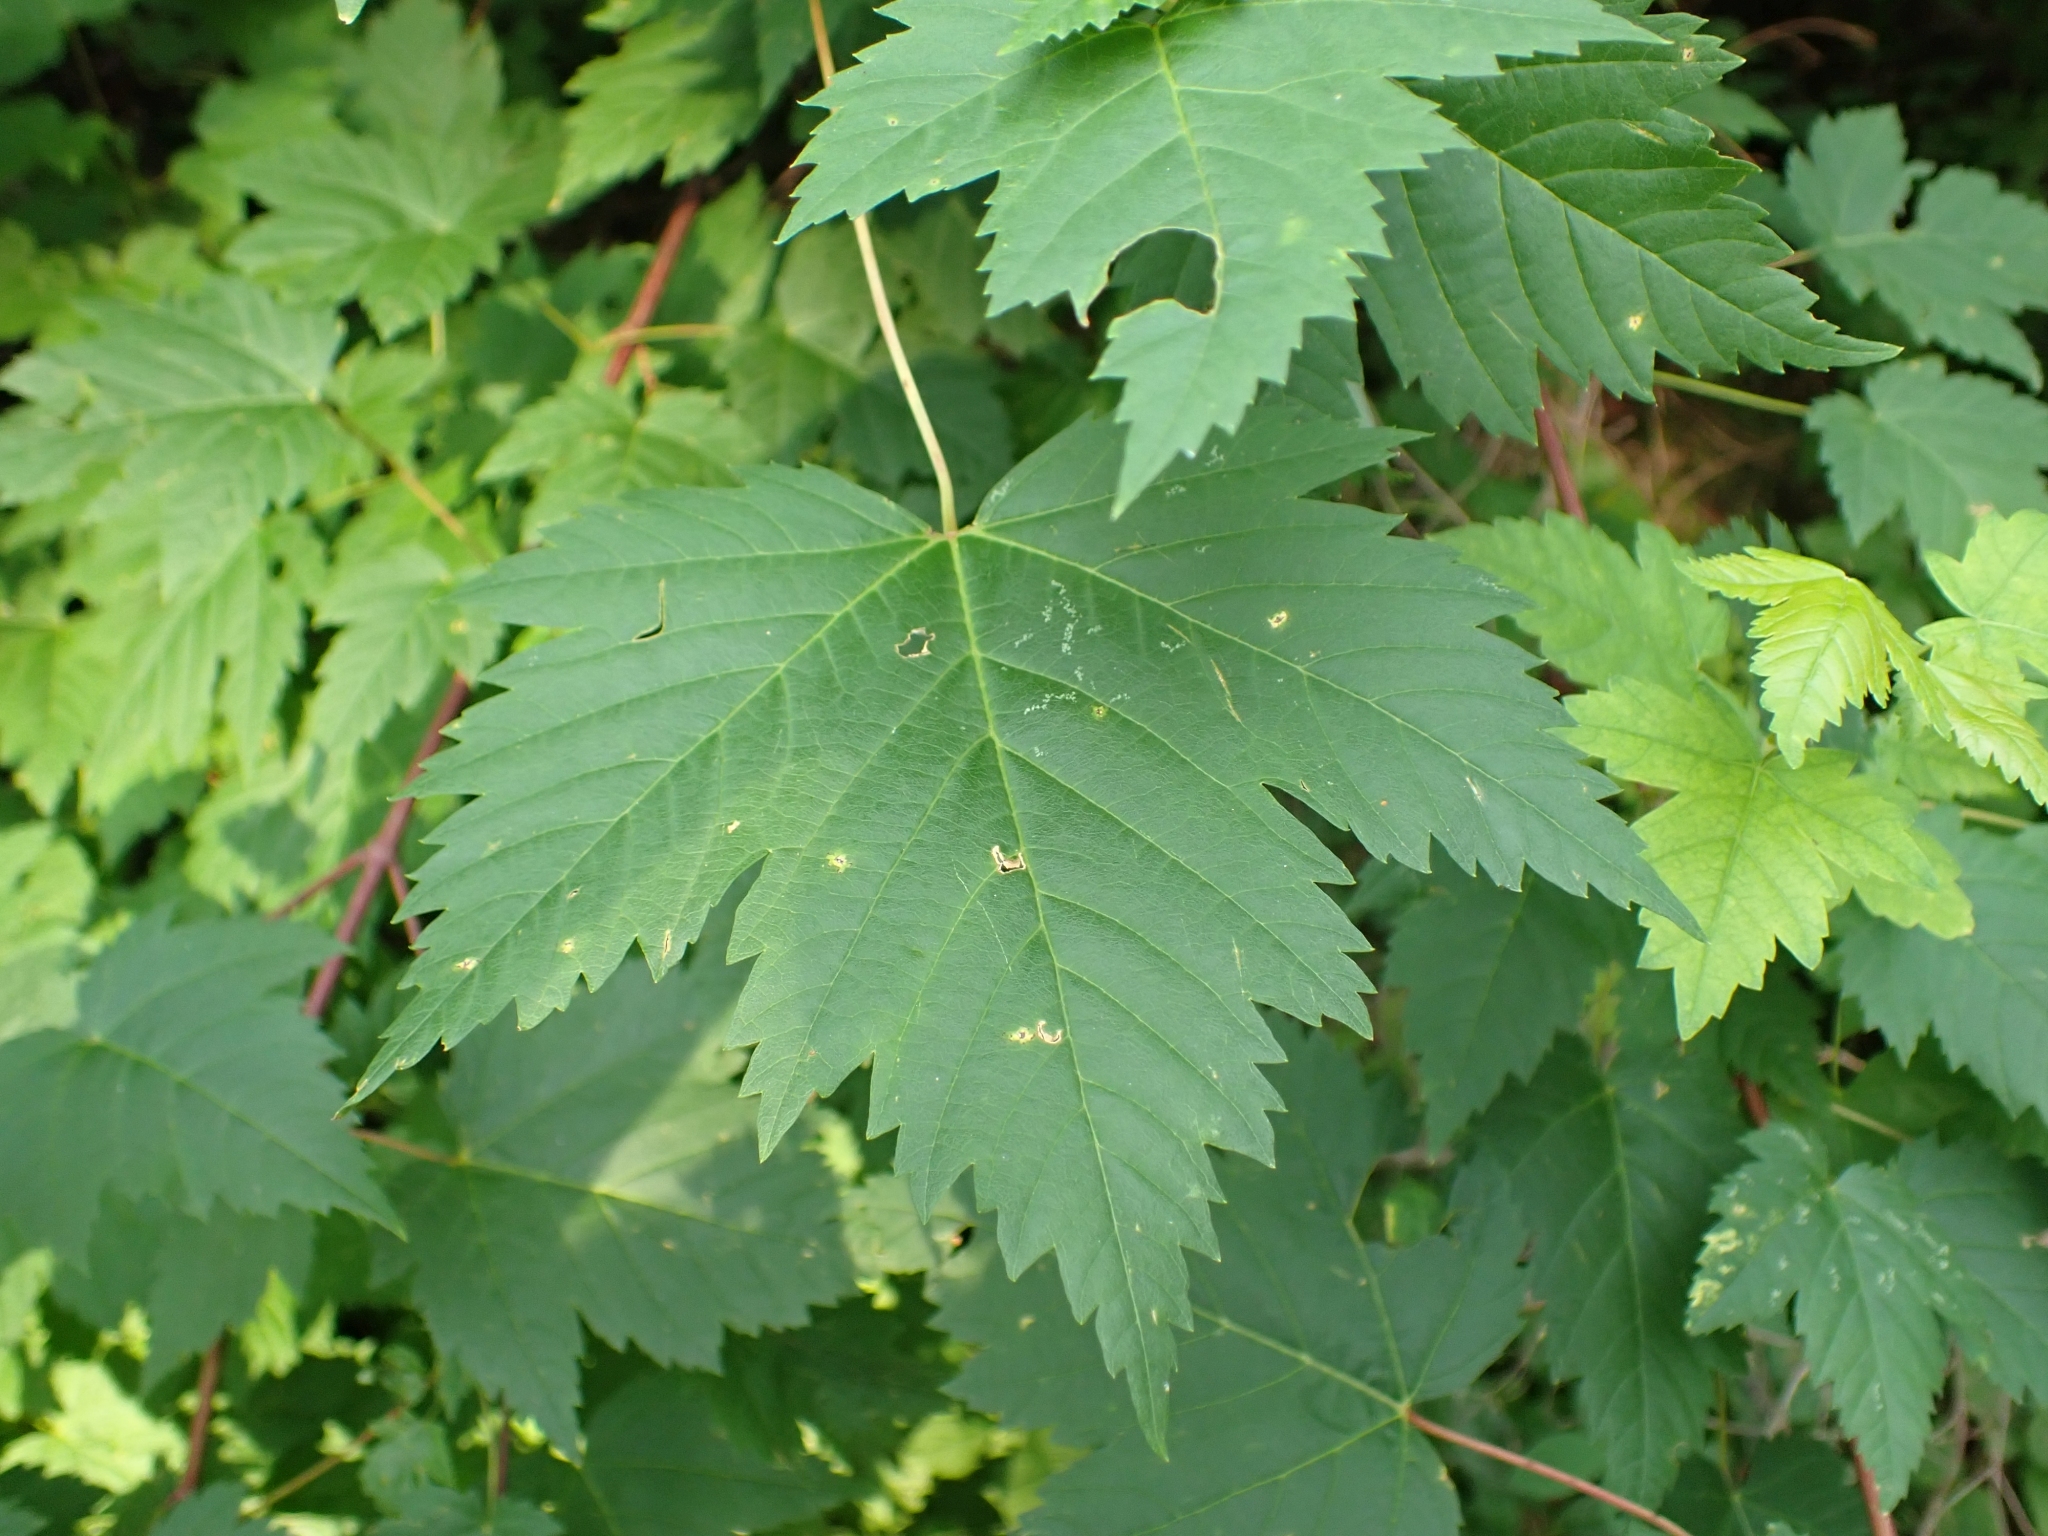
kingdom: Plantae
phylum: Tracheophyta
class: Magnoliopsida
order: Sapindales
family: Sapindaceae
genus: Acer
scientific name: Acer glabrum
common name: Rocky mountain maple
